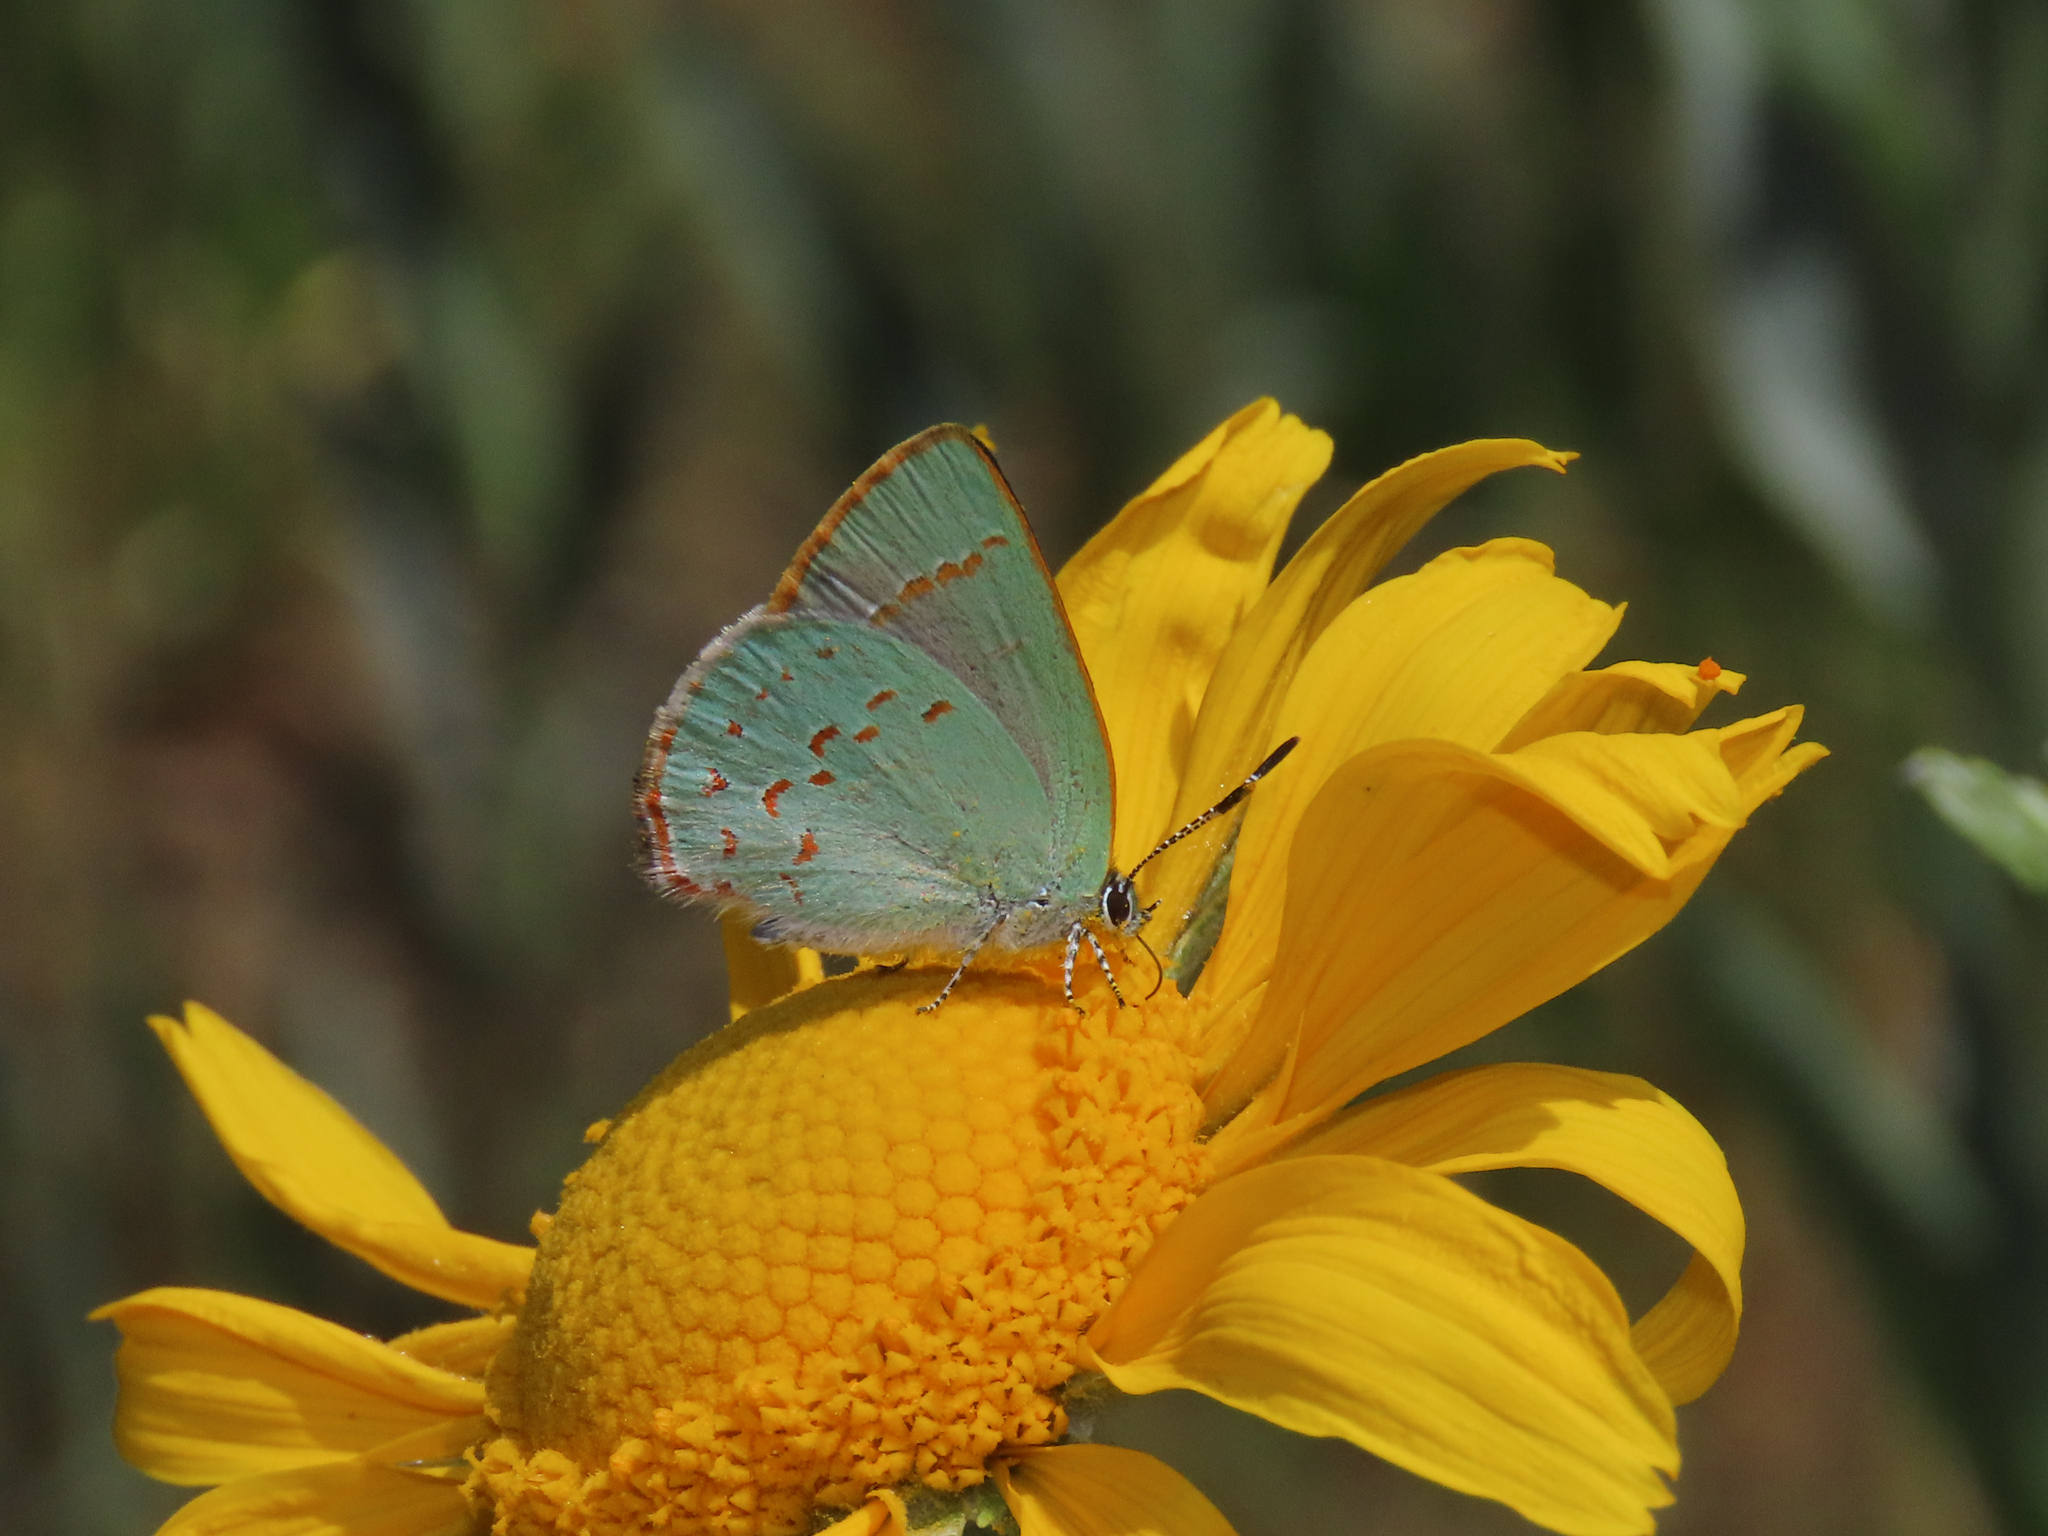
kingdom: Animalia
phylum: Arthropoda
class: Insecta
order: Lepidoptera
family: Lycaenidae
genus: Erora
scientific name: Erora quaderna
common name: Arizona hairstreak
